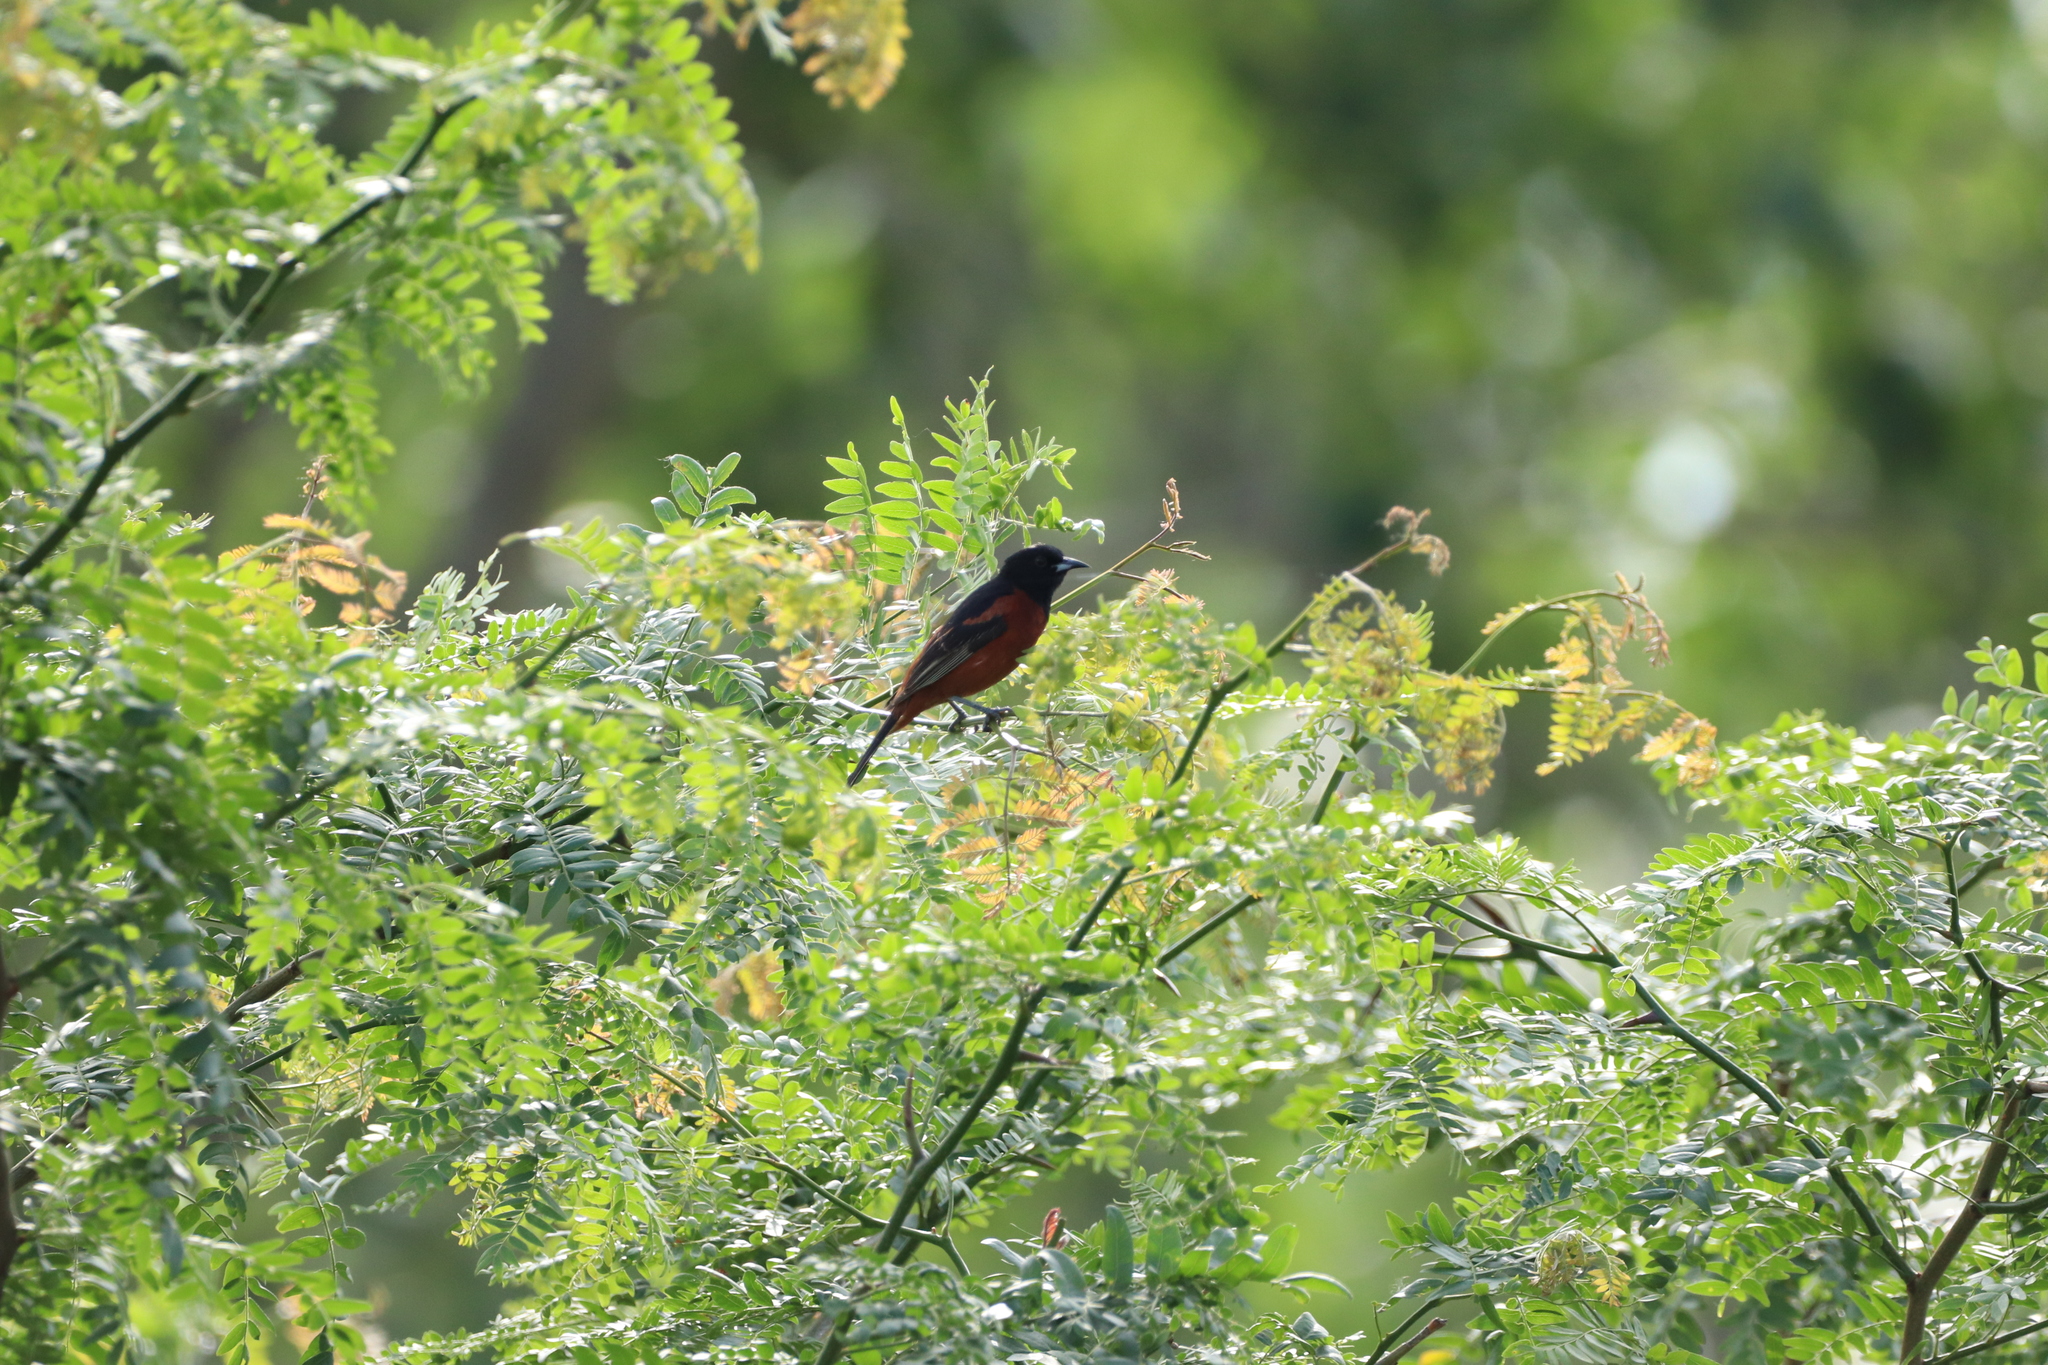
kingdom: Animalia
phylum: Chordata
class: Aves
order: Passeriformes
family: Icteridae
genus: Icterus
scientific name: Icterus spurius
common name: Orchard oriole
